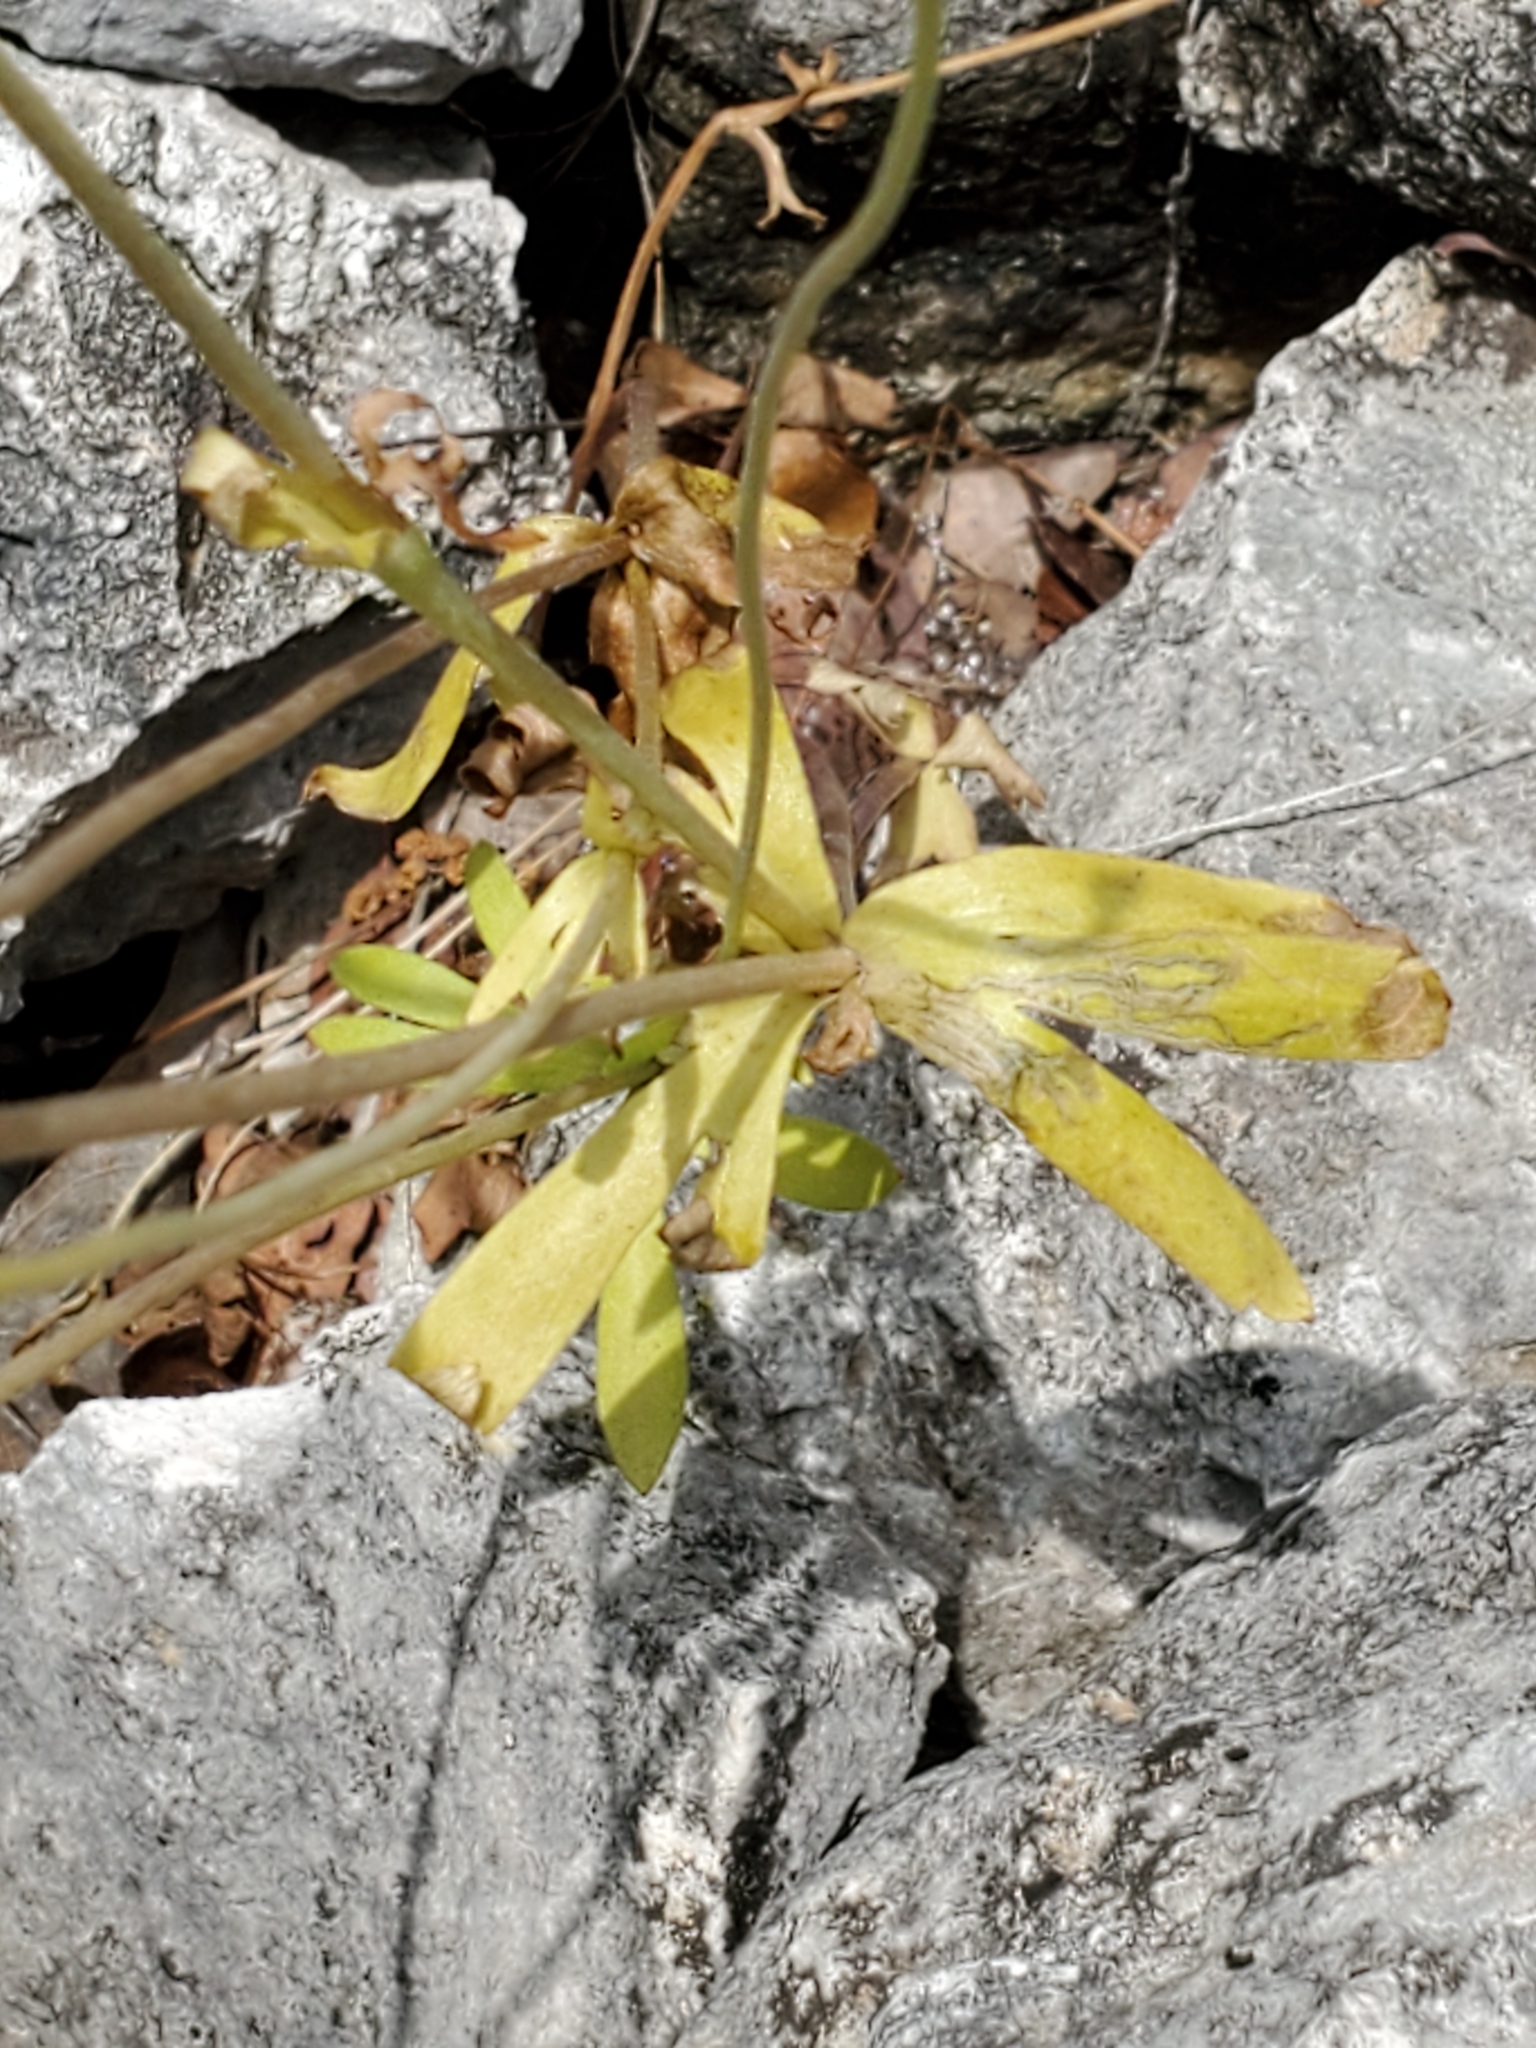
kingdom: Plantae
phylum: Tracheophyta
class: Magnoliopsida
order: Ranunculales
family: Ranunculaceae
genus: Anemone
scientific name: Anemone edwardsiana
